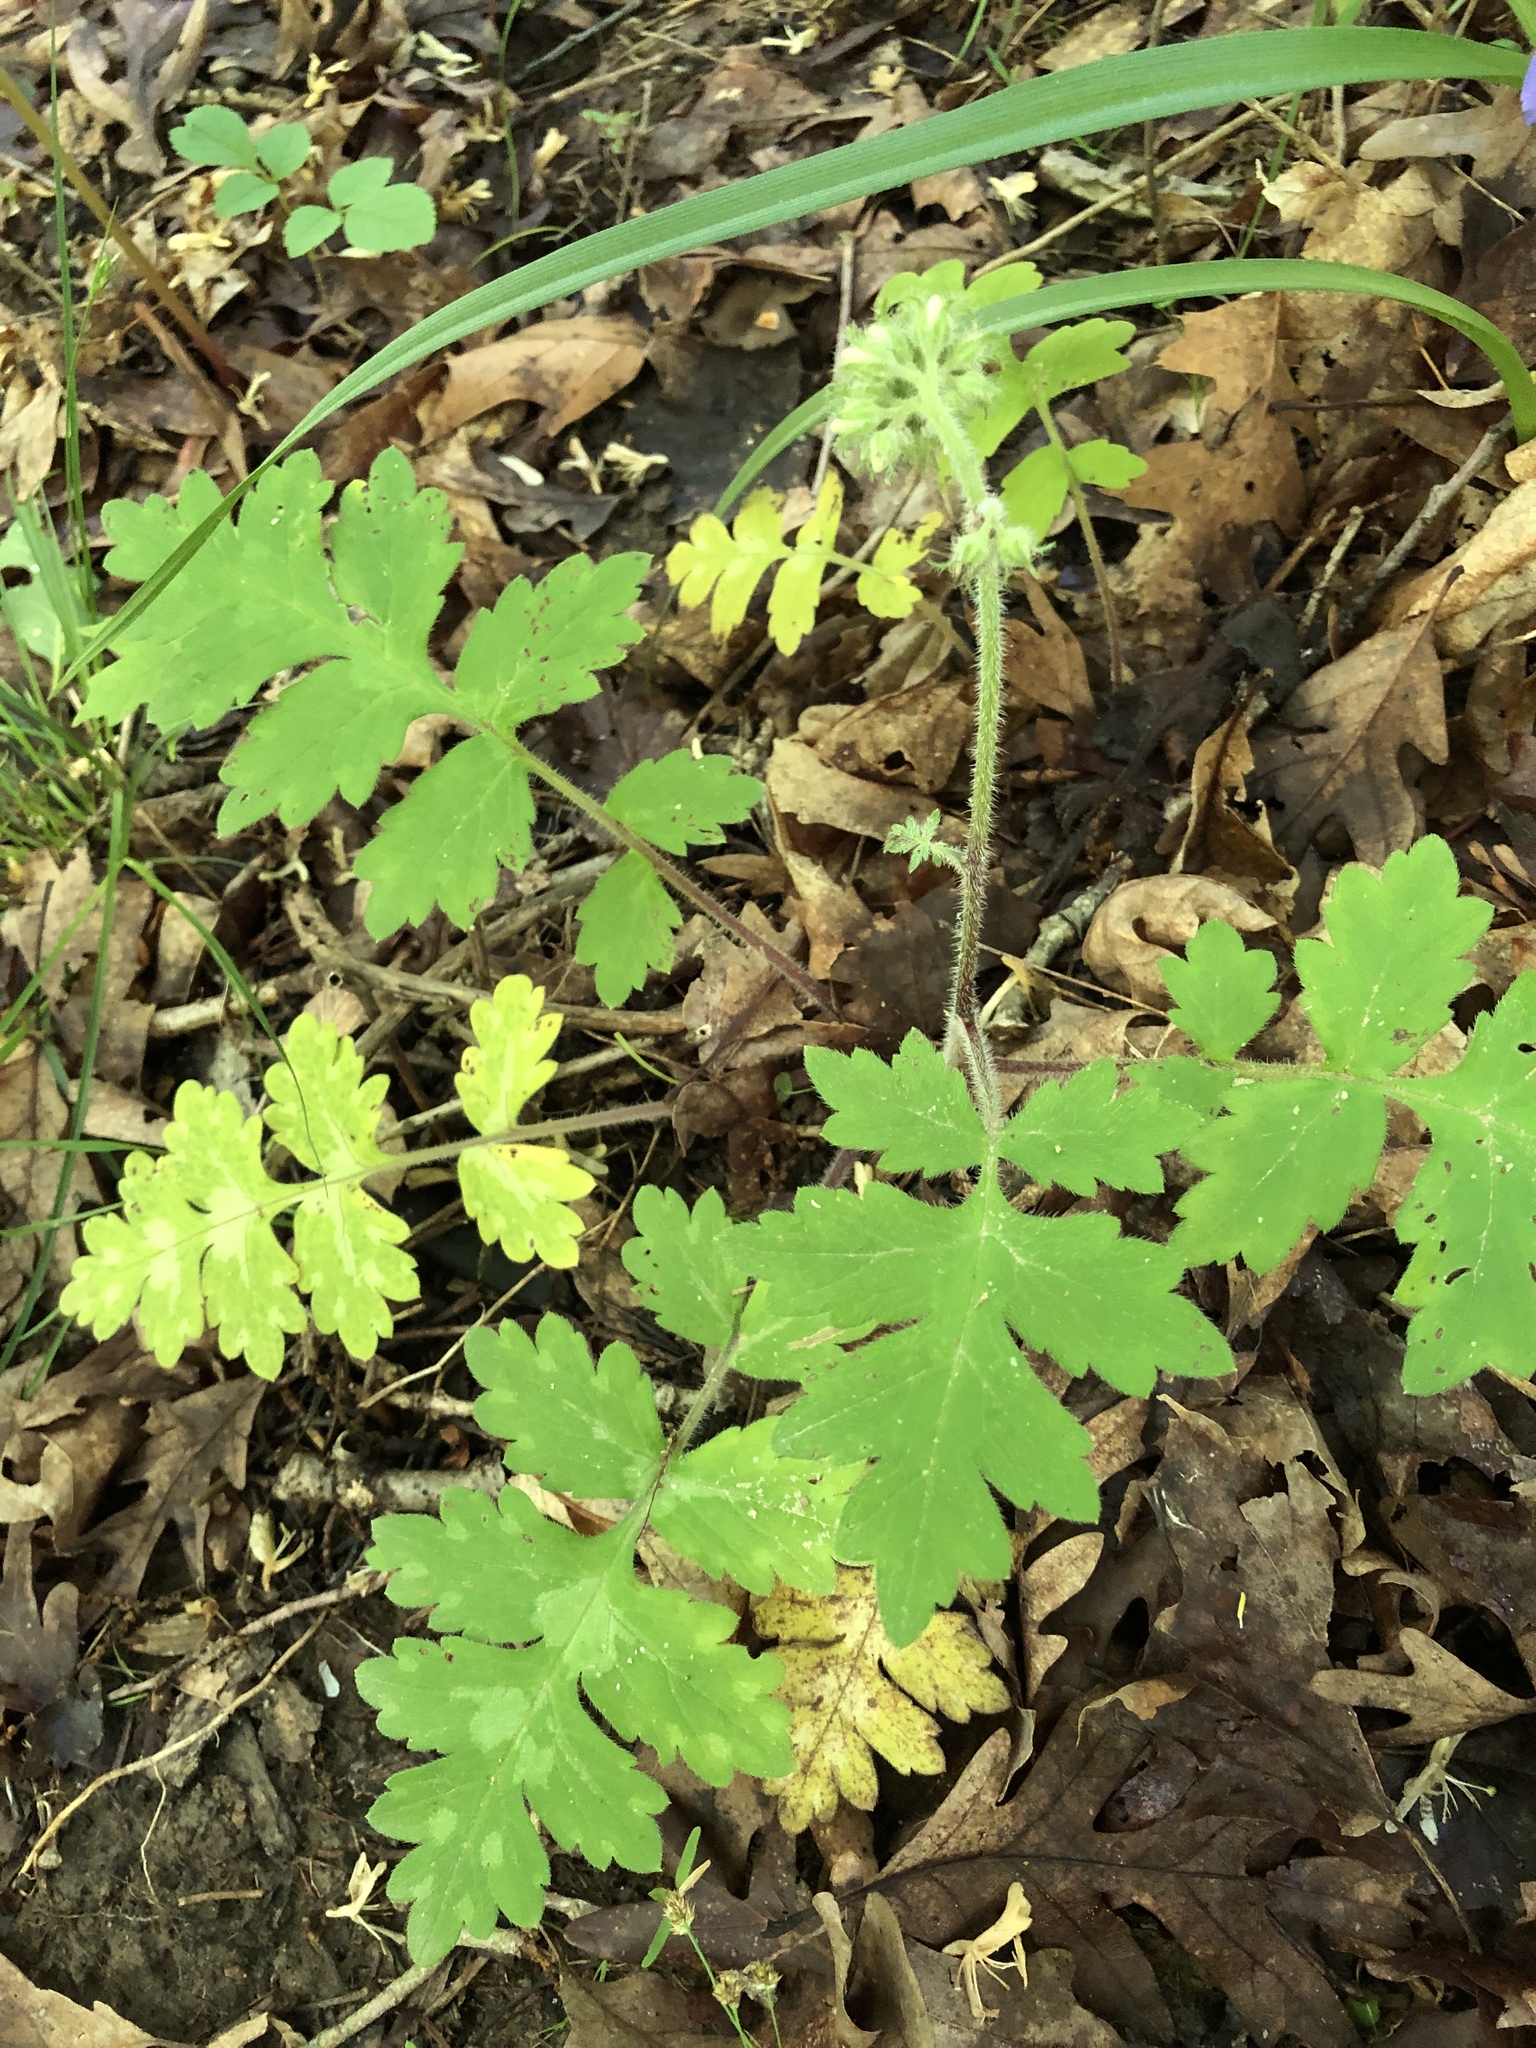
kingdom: Plantae
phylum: Tracheophyta
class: Magnoliopsida
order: Boraginales
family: Hydrophyllaceae
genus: Hydrophyllum
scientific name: Hydrophyllum macrophyllum
